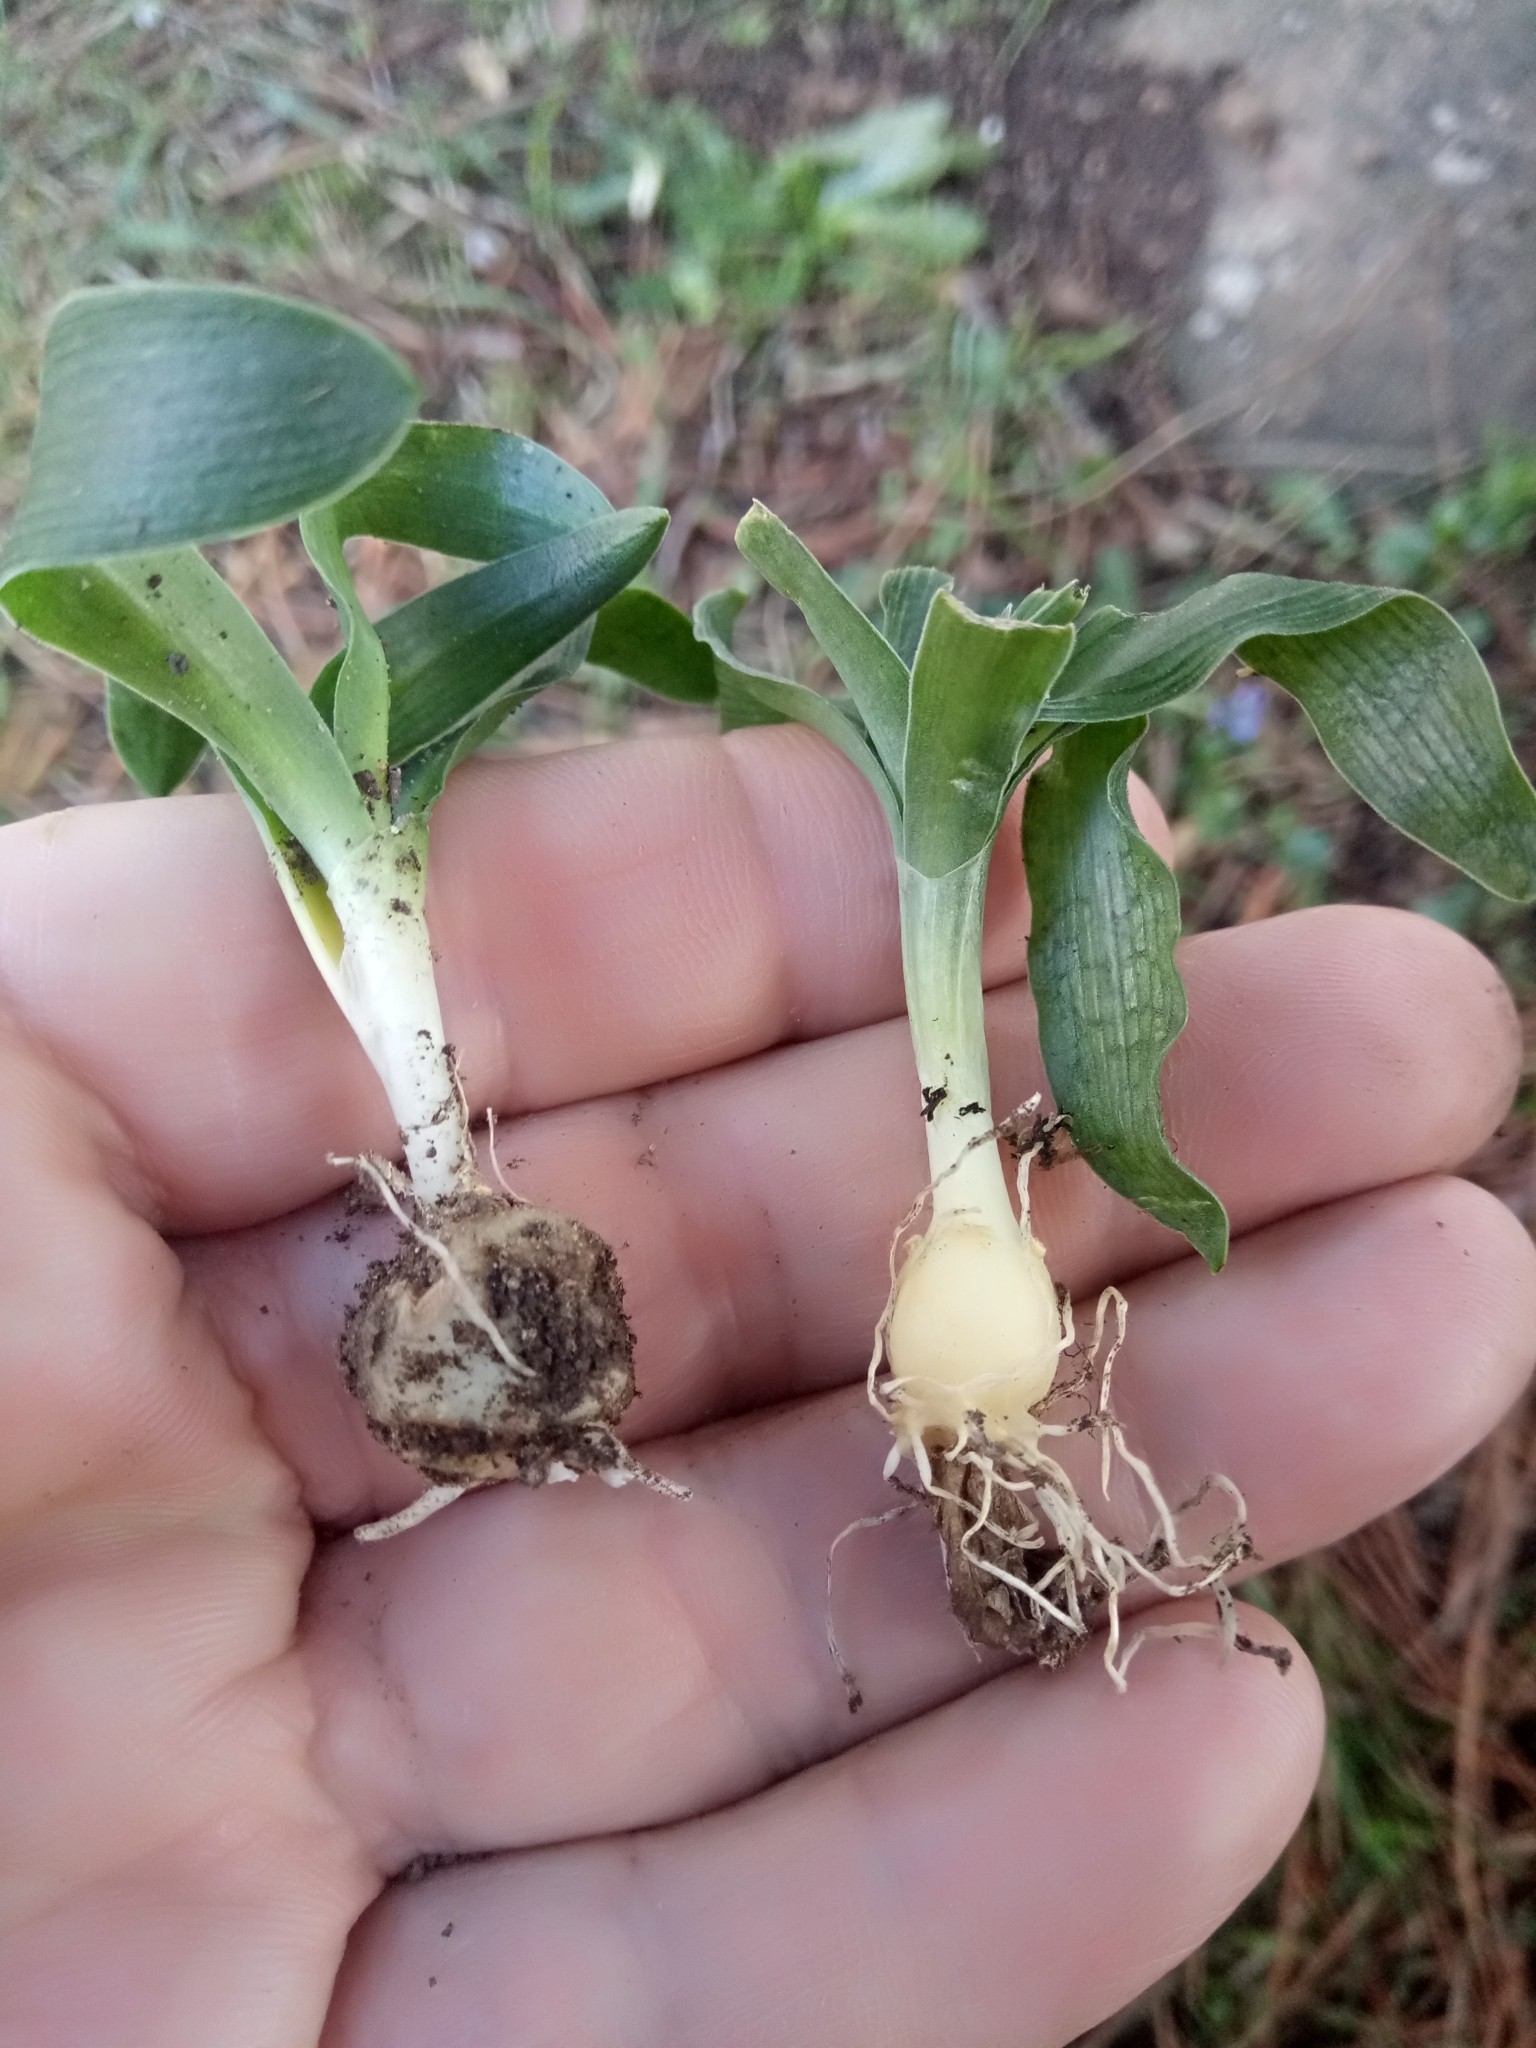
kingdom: Plantae
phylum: Tracheophyta
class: Liliopsida
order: Asparagales
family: Asparagaceae
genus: Hyacinthoides
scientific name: Hyacinthoides lingulata
